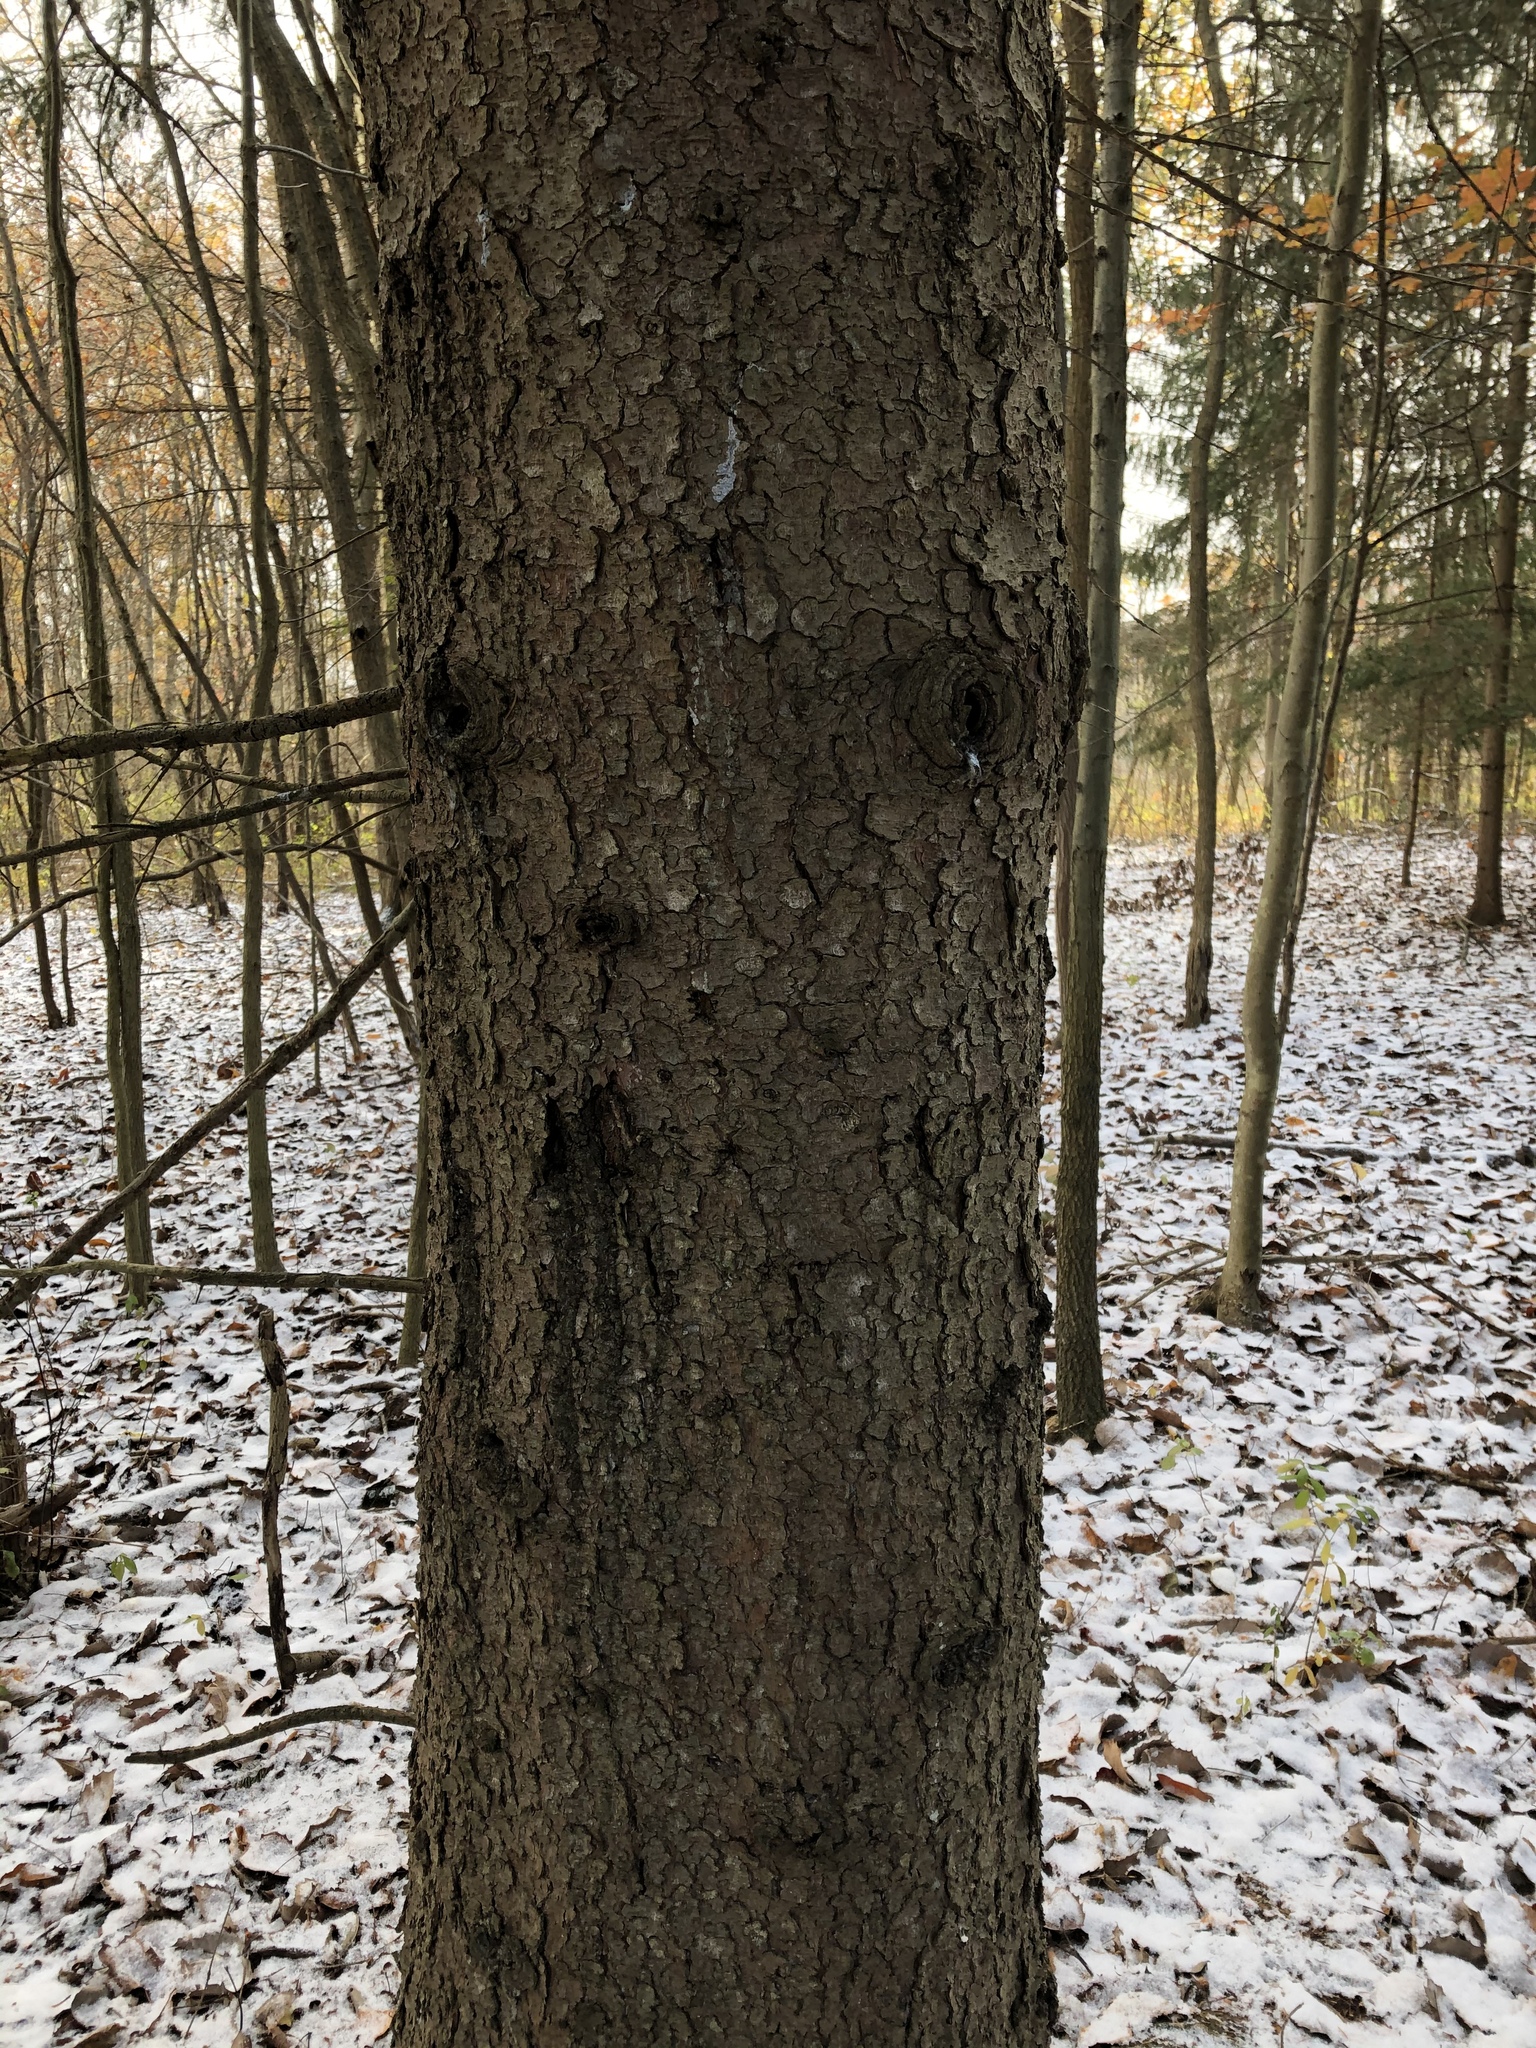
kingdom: Plantae
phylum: Tracheophyta
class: Pinopsida
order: Pinales
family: Pinaceae
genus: Picea
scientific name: Picea abies
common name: Norway spruce
